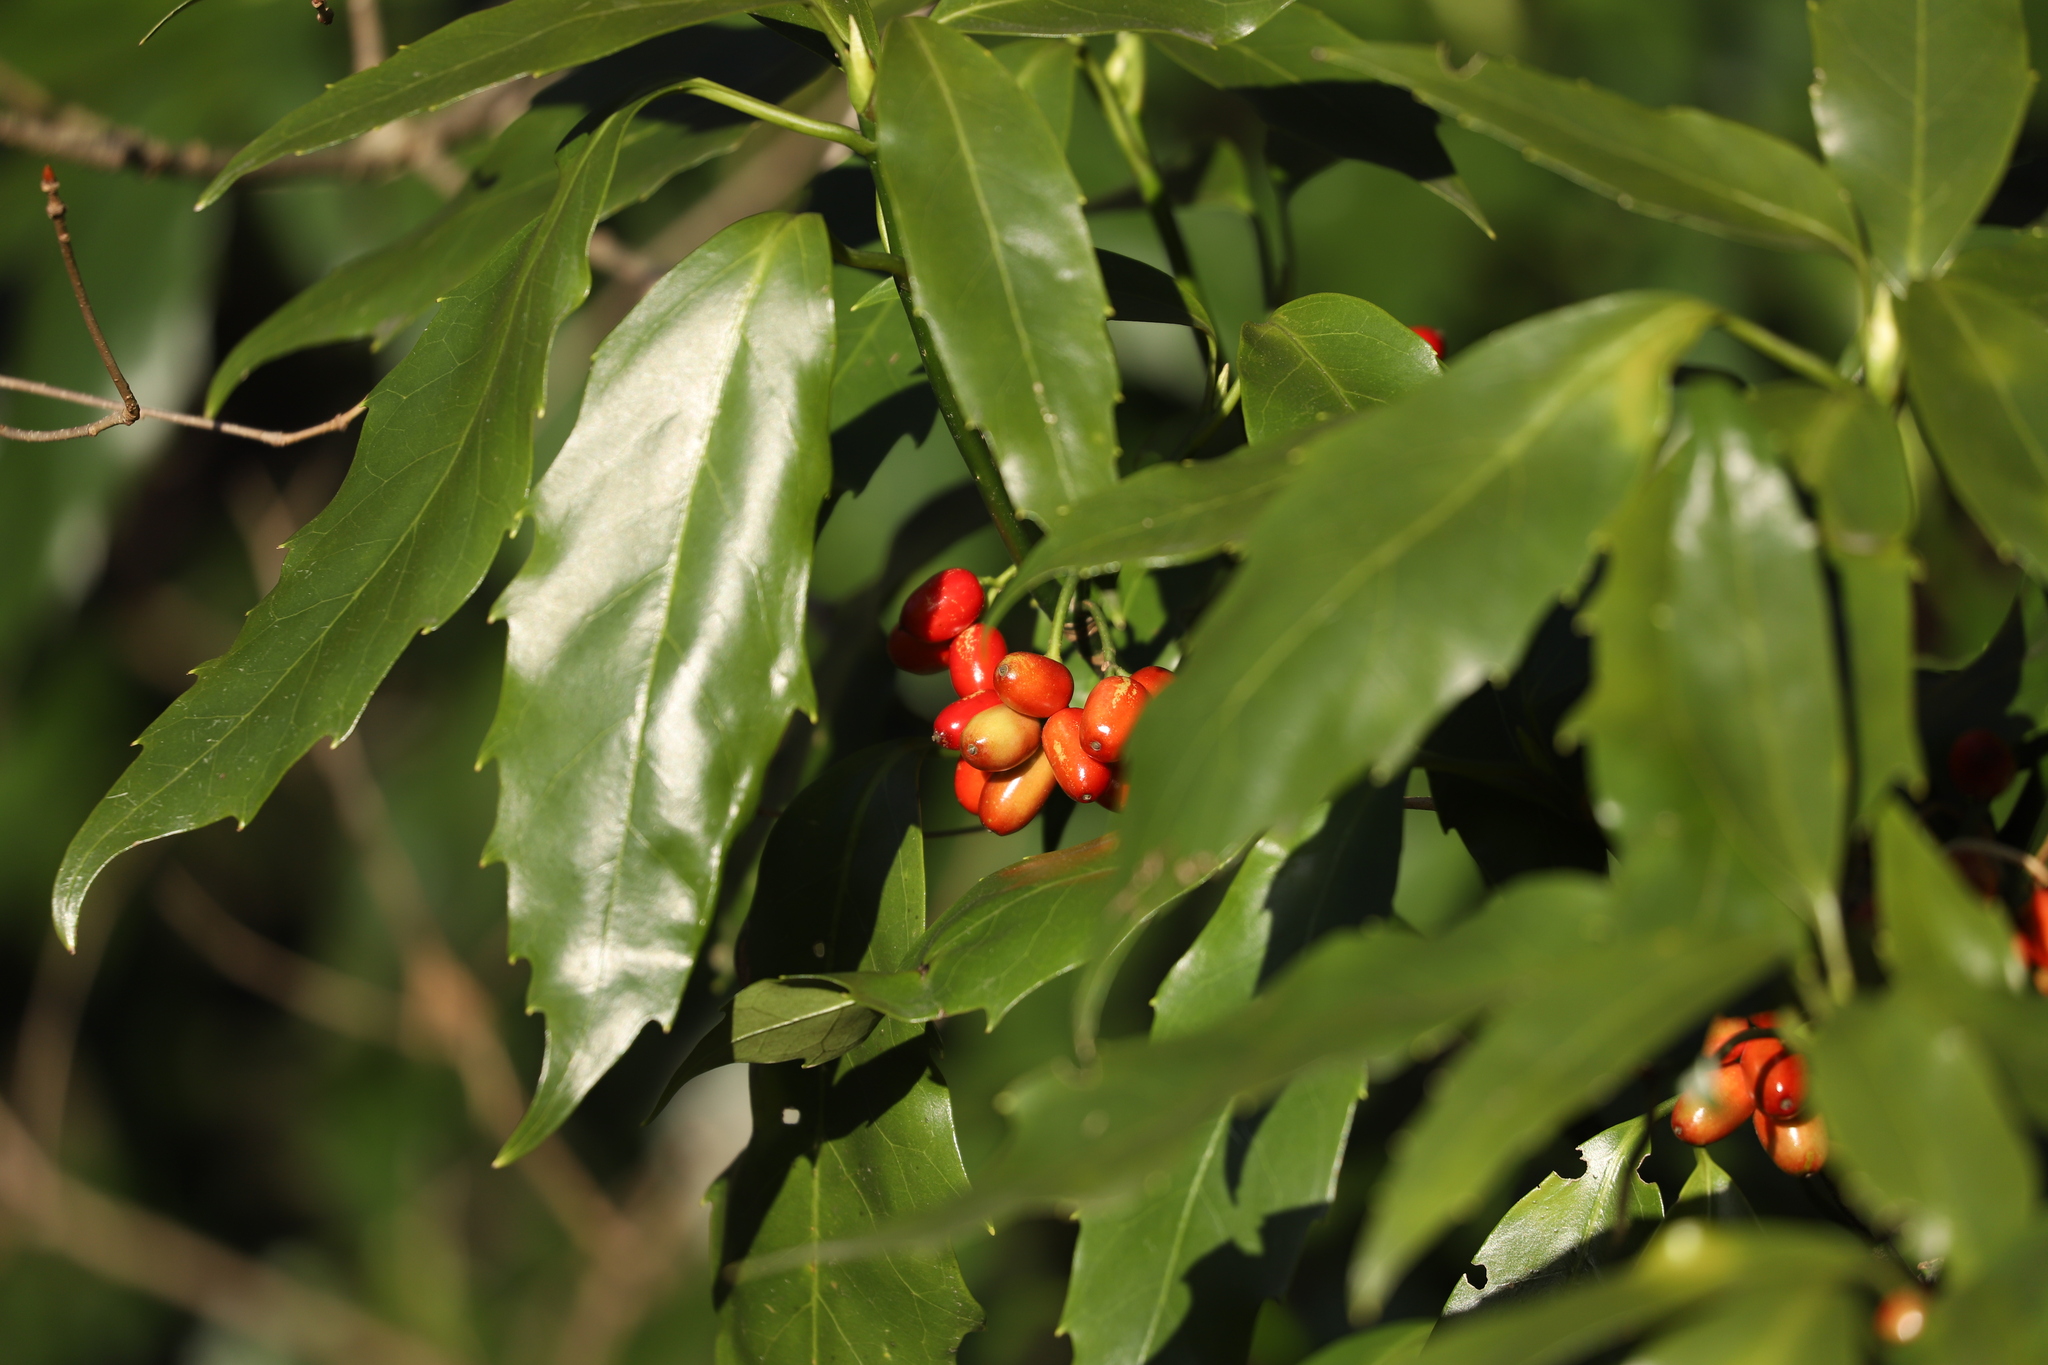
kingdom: Plantae
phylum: Tracheophyta
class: Magnoliopsida
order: Garryales
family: Garryaceae
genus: Aucuba
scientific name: Aucuba japonica
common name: Spotted-laurel
